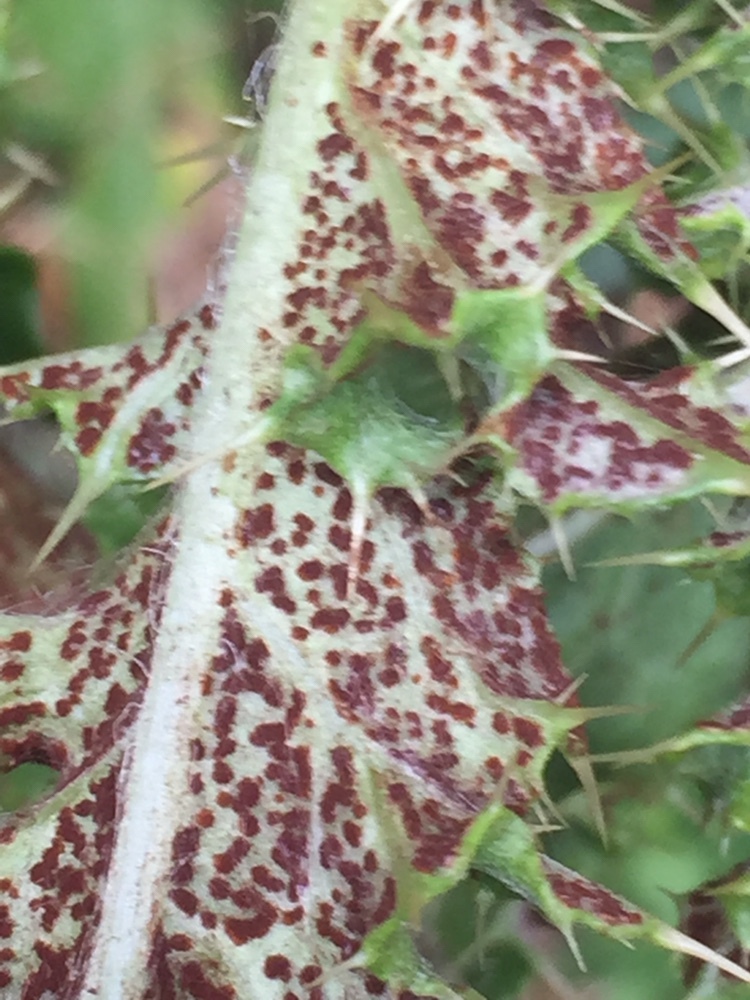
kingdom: Fungi
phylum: Basidiomycota
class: Pucciniomycetes
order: Pucciniales
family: Pucciniaceae
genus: Puccinia
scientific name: Puccinia suaveolens
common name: Thistle rust
